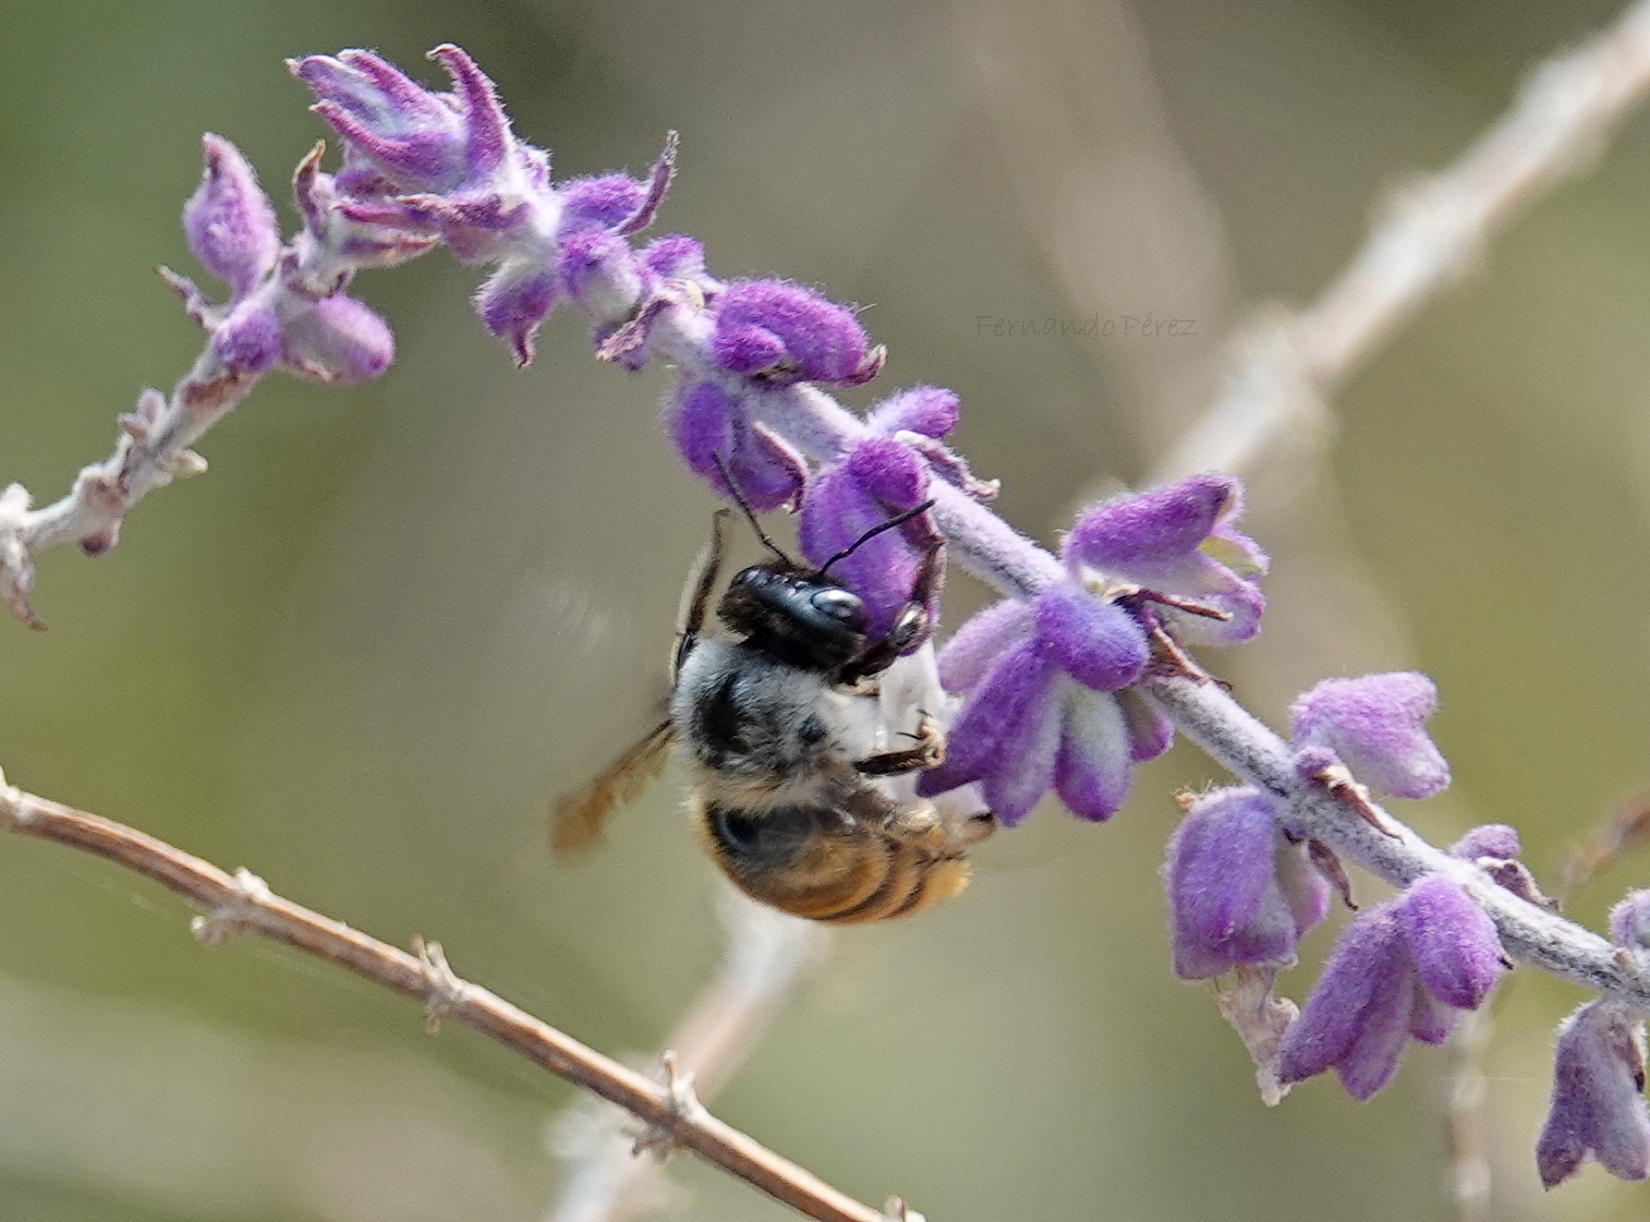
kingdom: Animalia
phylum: Arthropoda
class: Insecta
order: Hymenoptera
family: Apidae
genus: Xylocopa
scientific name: Xylocopa tabaniformis
